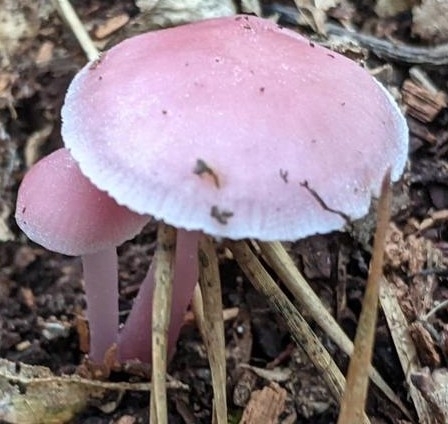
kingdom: Fungi
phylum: Basidiomycota
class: Agaricomycetes
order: Agaricales
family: Mycenaceae
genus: Mycena
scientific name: Mycena pura
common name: Lilac bonnet
